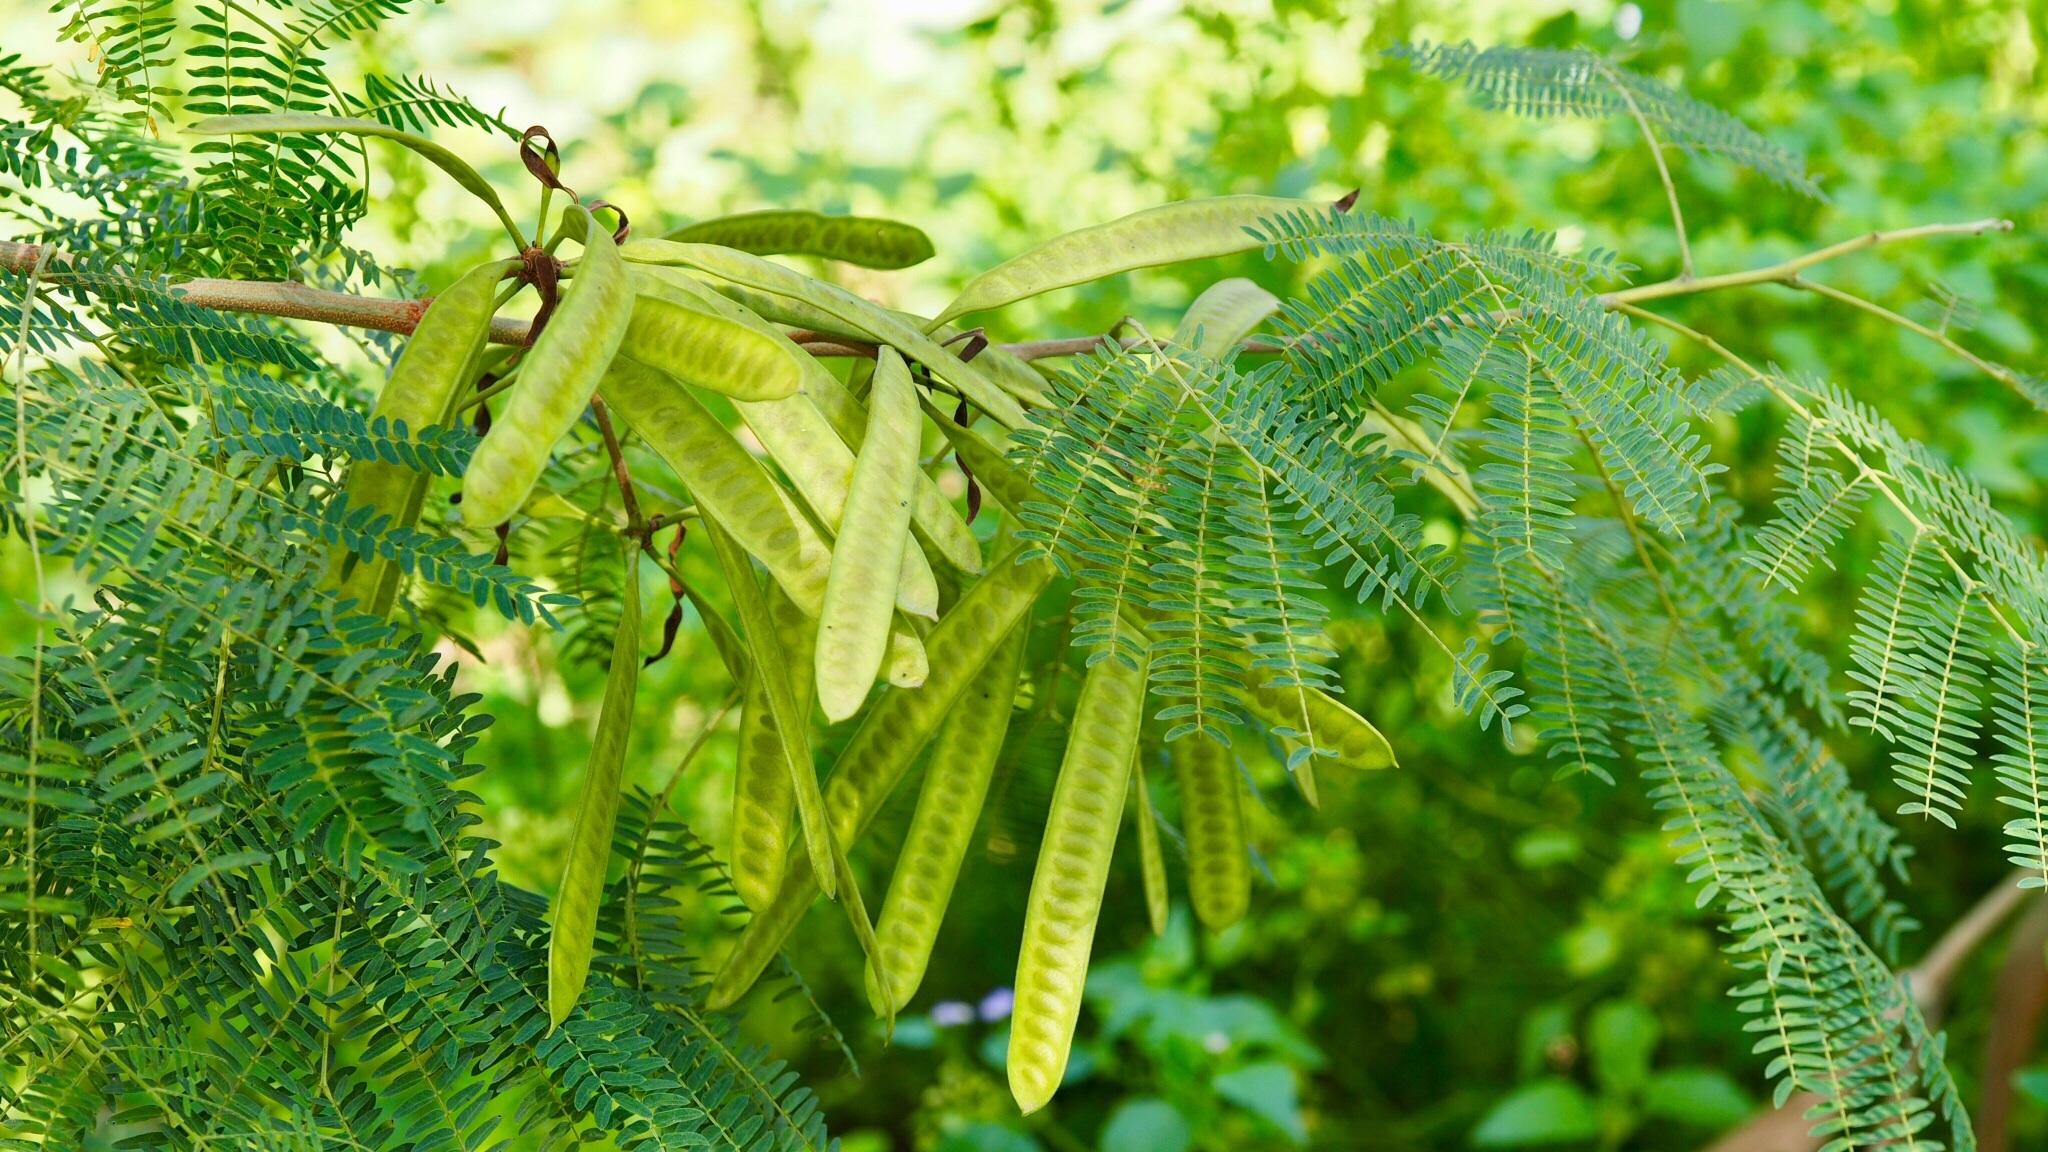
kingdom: Plantae
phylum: Tracheophyta
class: Magnoliopsida
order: Fabales
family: Fabaceae
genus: Leucaena
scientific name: Leucaena leucocephala
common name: White leadtree
